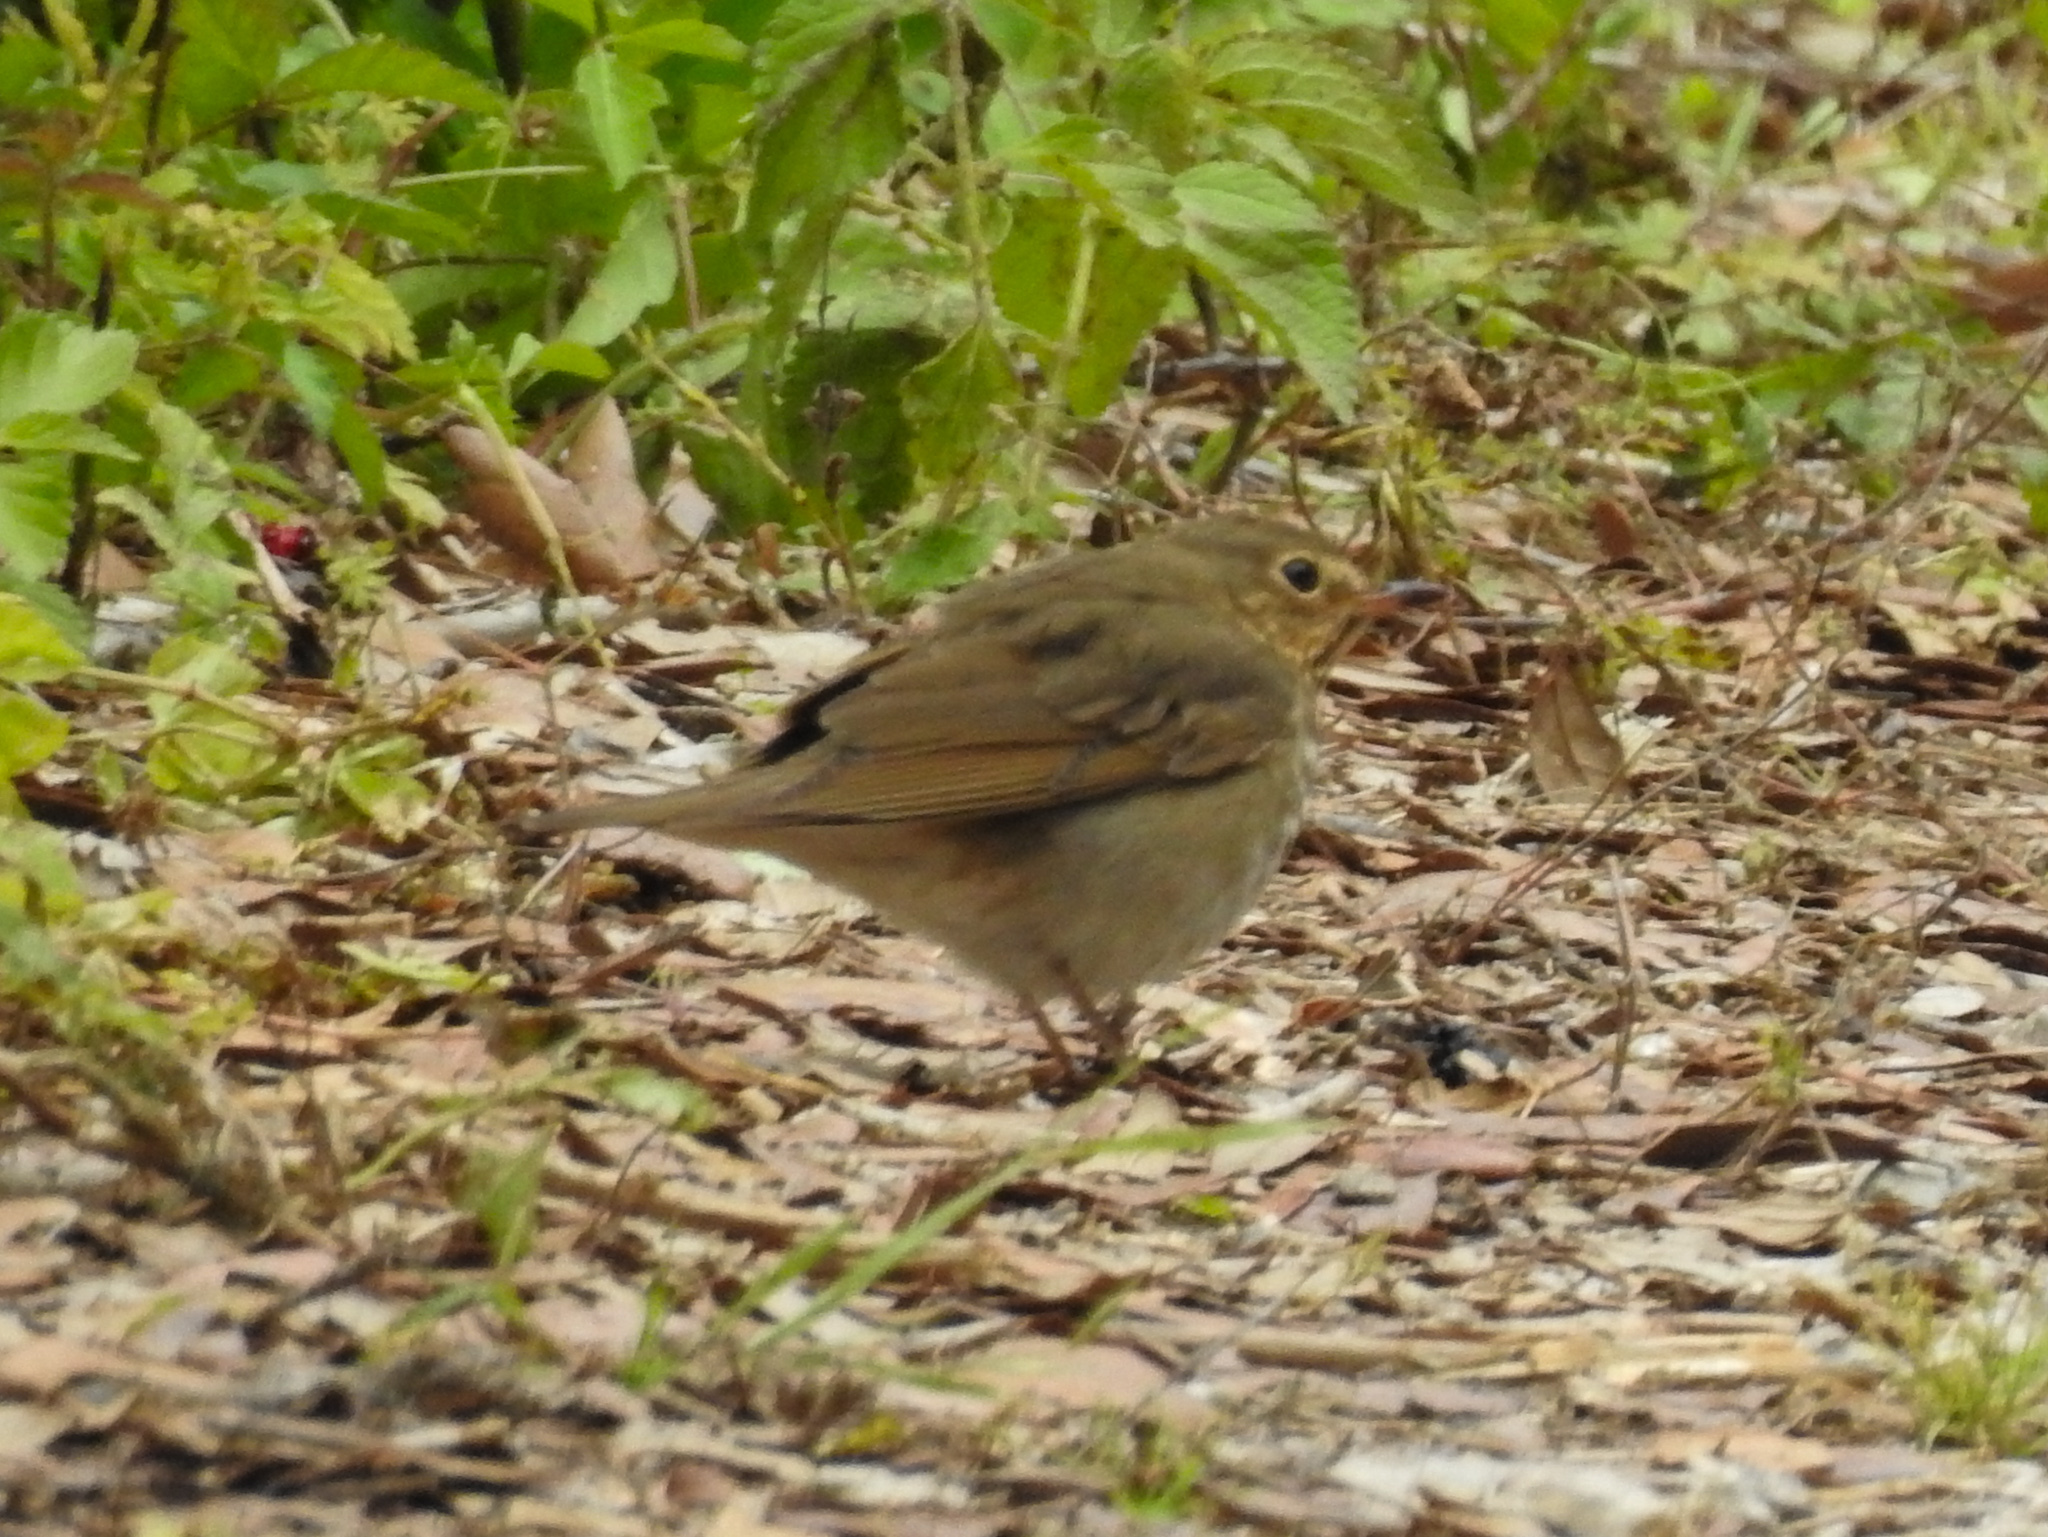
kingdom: Animalia
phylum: Chordata
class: Aves
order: Passeriformes
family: Turdidae
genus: Catharus
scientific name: Catharus ustulatus
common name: Swainson's thrush
